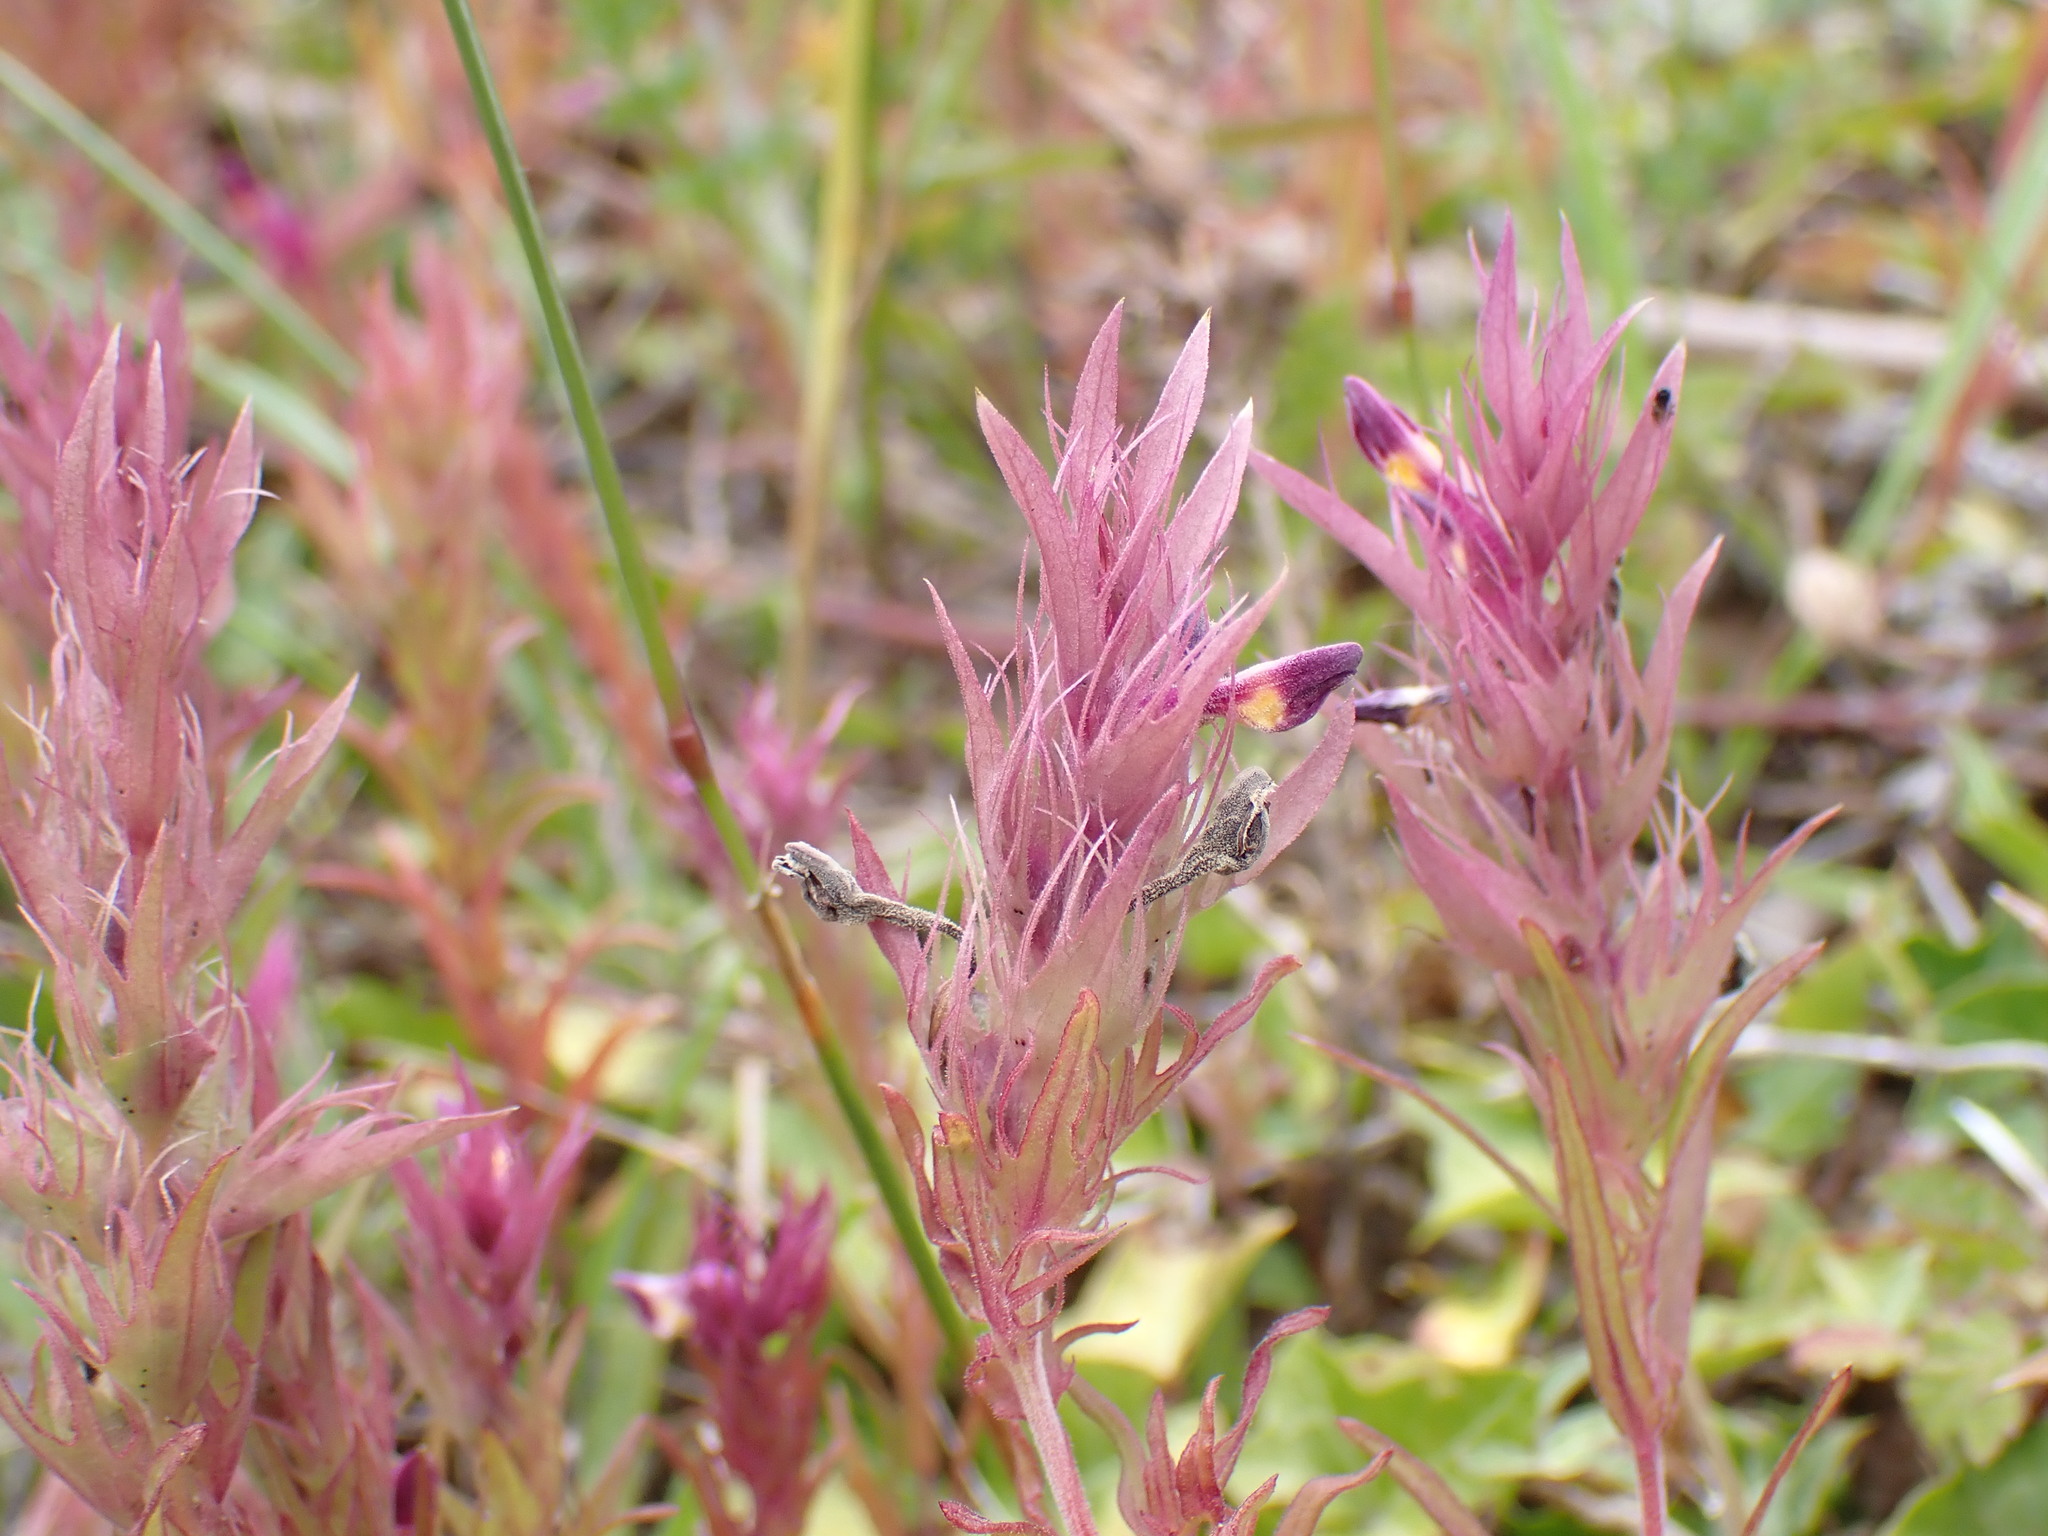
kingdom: Plantae
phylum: Tracheophyta
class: Magnoliopsida
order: Lamiales
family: Orobanchaceae
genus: Melampyrum
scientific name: Melampyrum arvense
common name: Field cow-wheat
